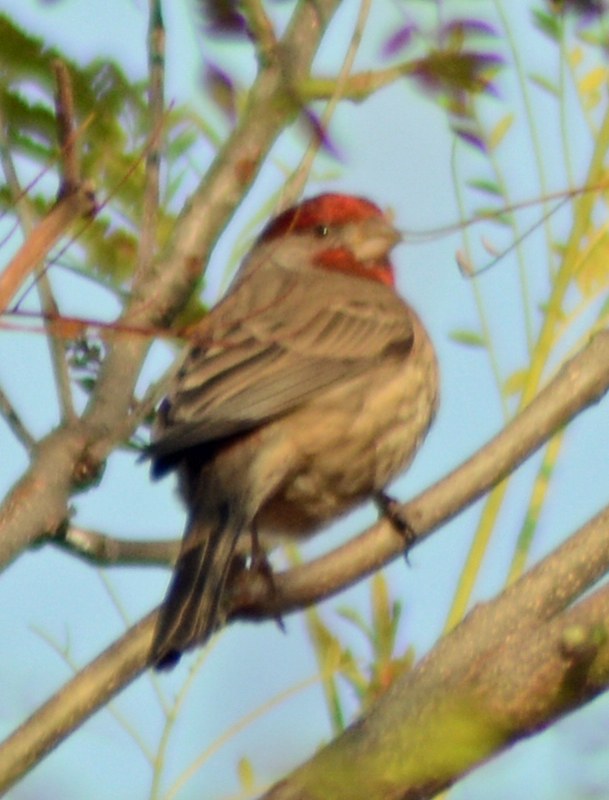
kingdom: Animalia
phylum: Chordata
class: Aves
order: Passeriformes
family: Fringillidae
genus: Haemorhous
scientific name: Haemorhous mexicanus
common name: House finch
